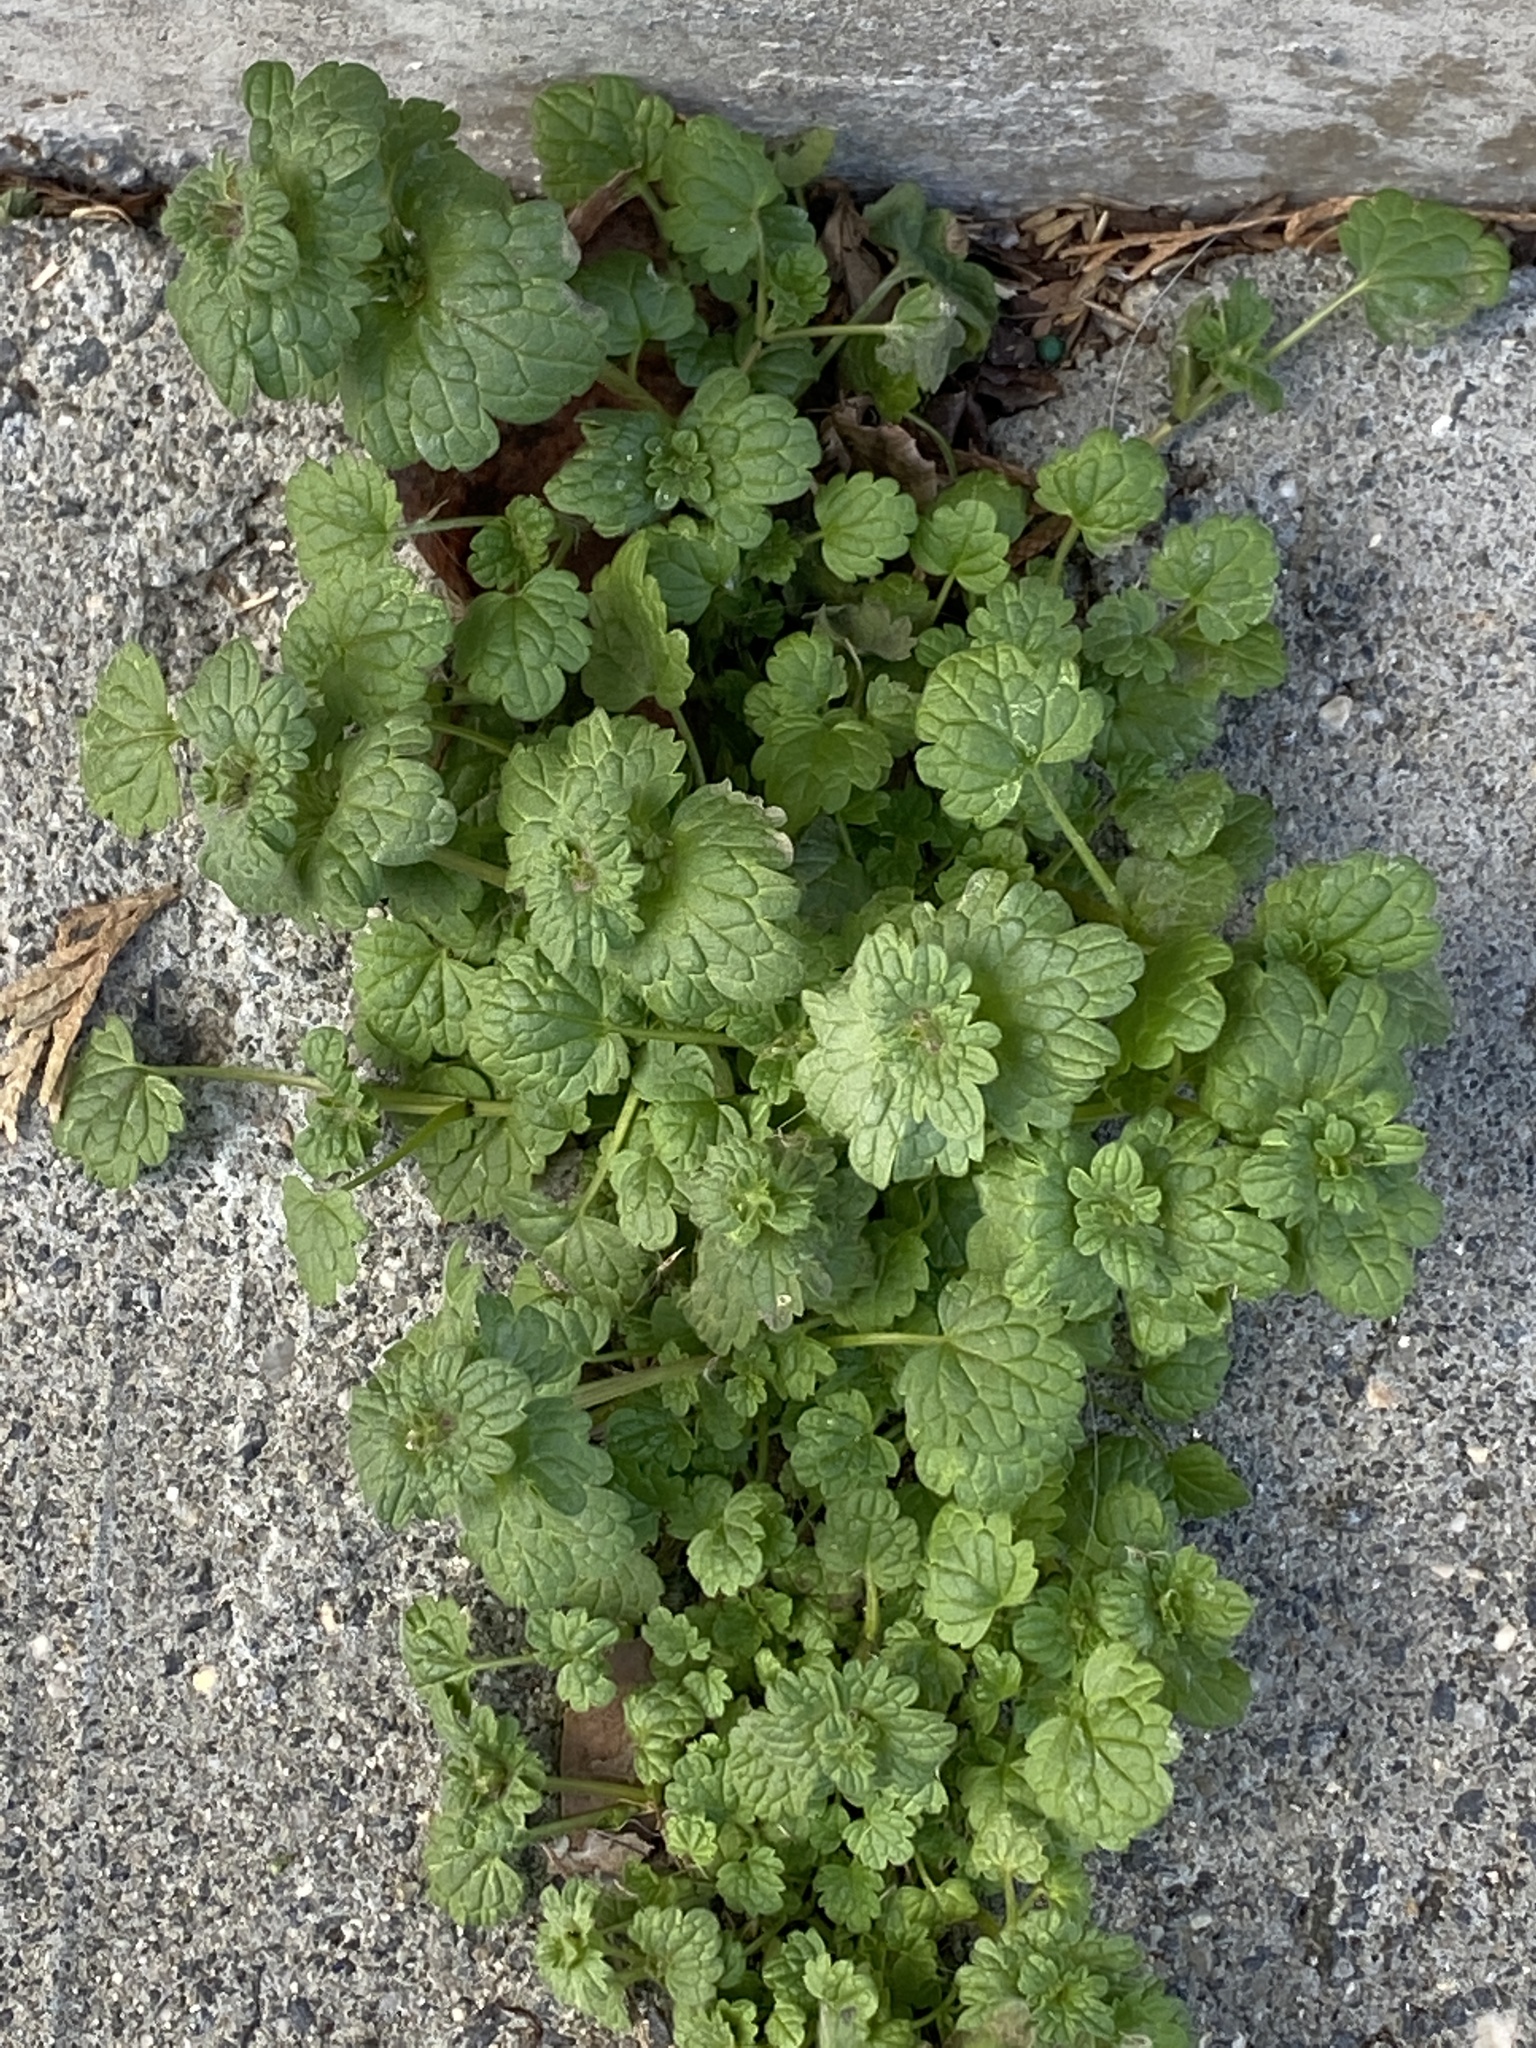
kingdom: Plantae
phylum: Tracheophyta
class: Magnoliopsida
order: Lamiales
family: Lamiaceae
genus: Lamium
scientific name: Lamium amplexicaule
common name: Henbit dead-nettle
